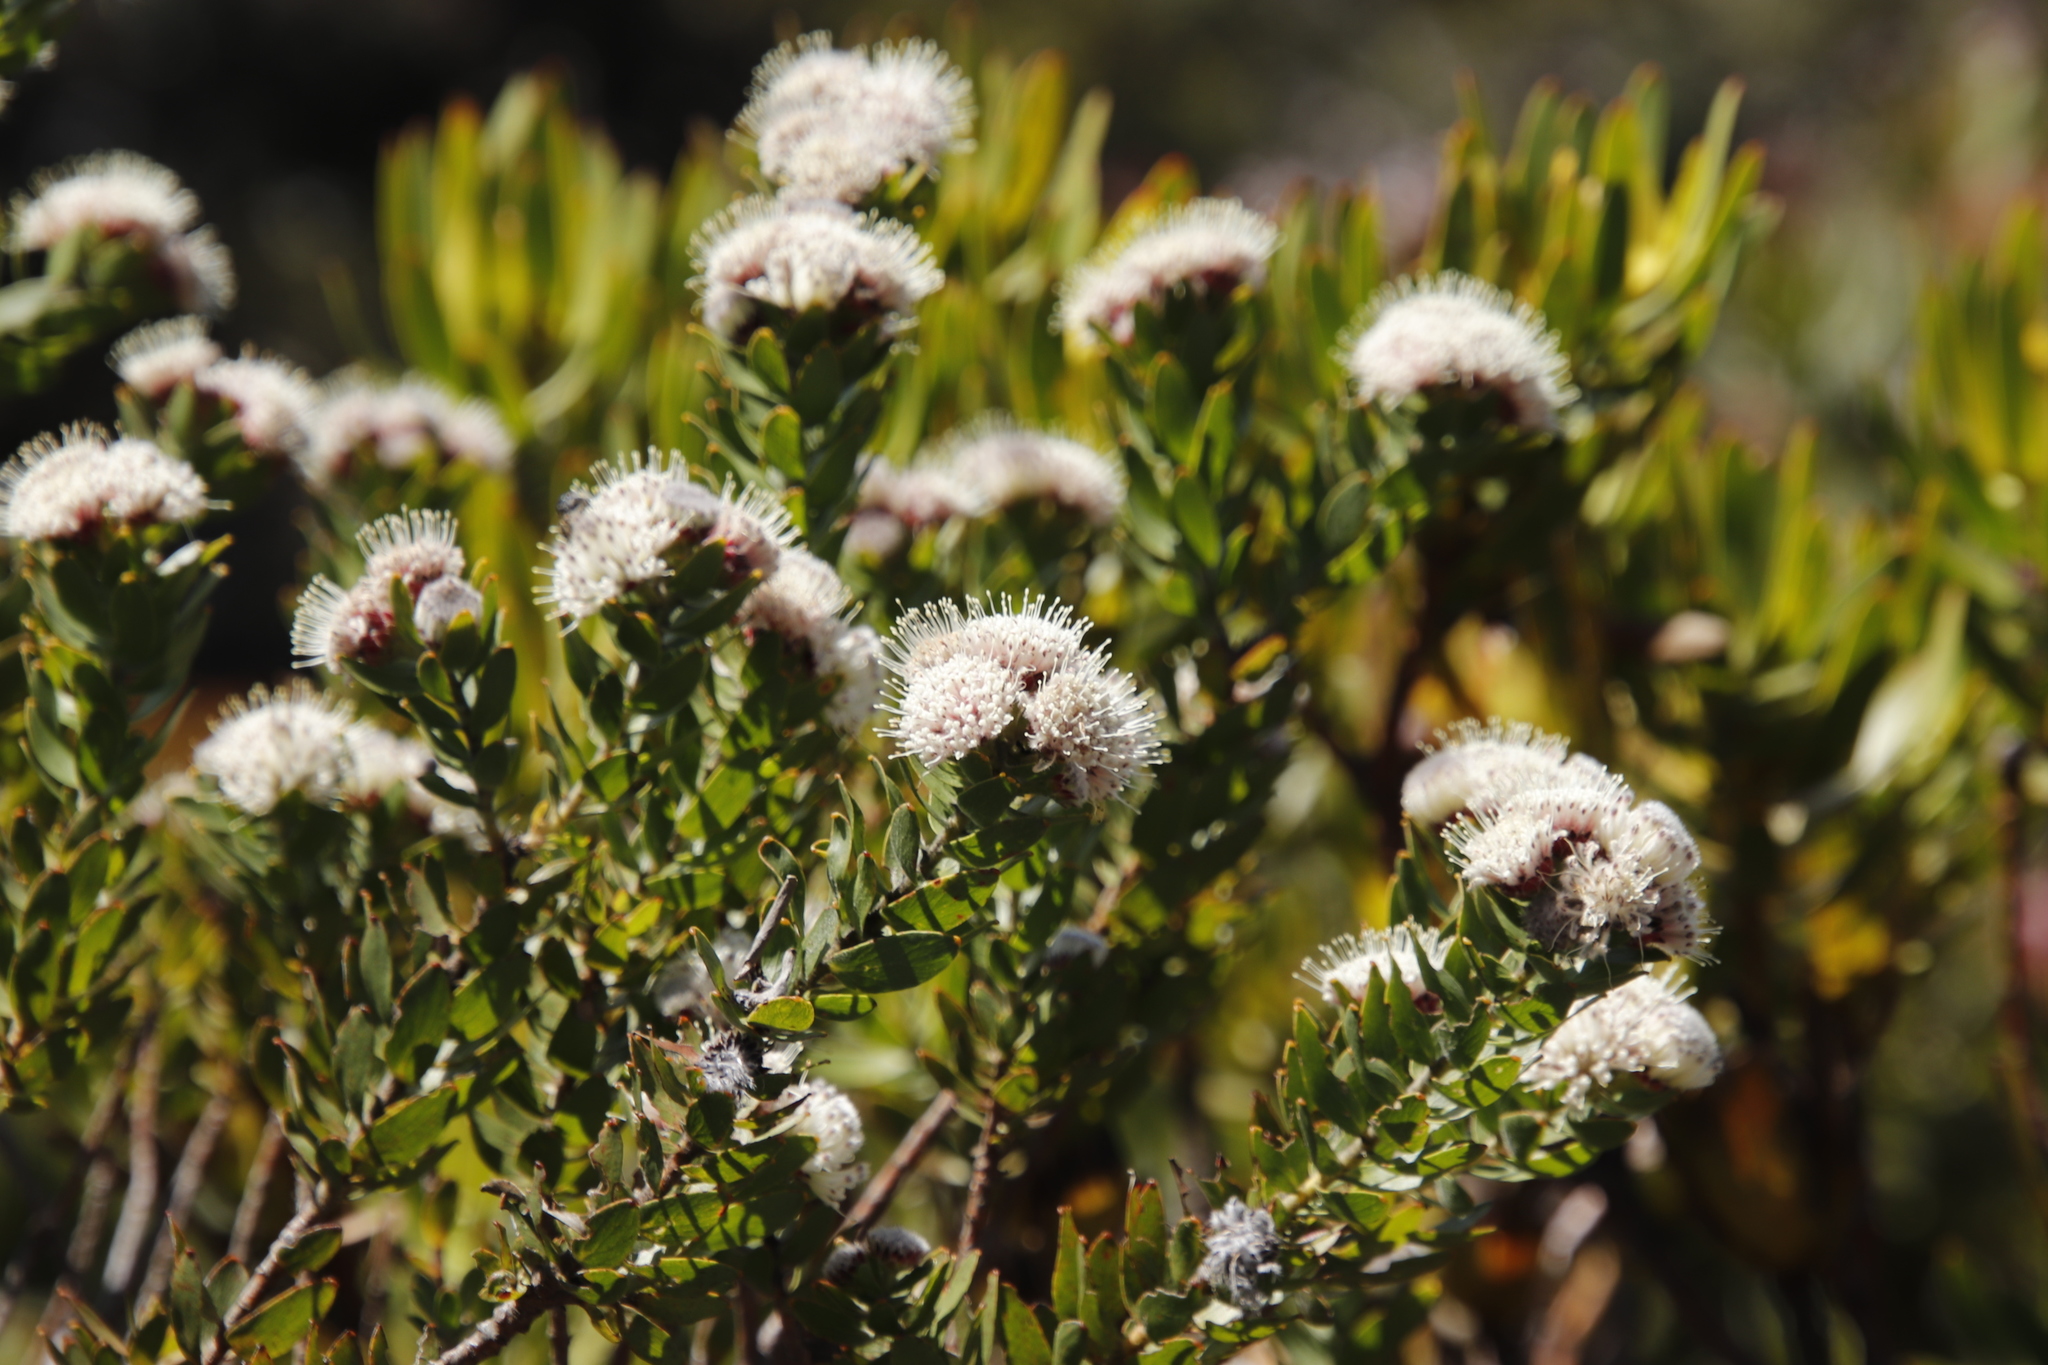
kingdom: Plantae
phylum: Tracheophyta
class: Magnoliopsida
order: Proteales
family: Proteaceae
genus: Leucospermum
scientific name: Leucospermum bolusii
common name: Gordon's bay pincushion
